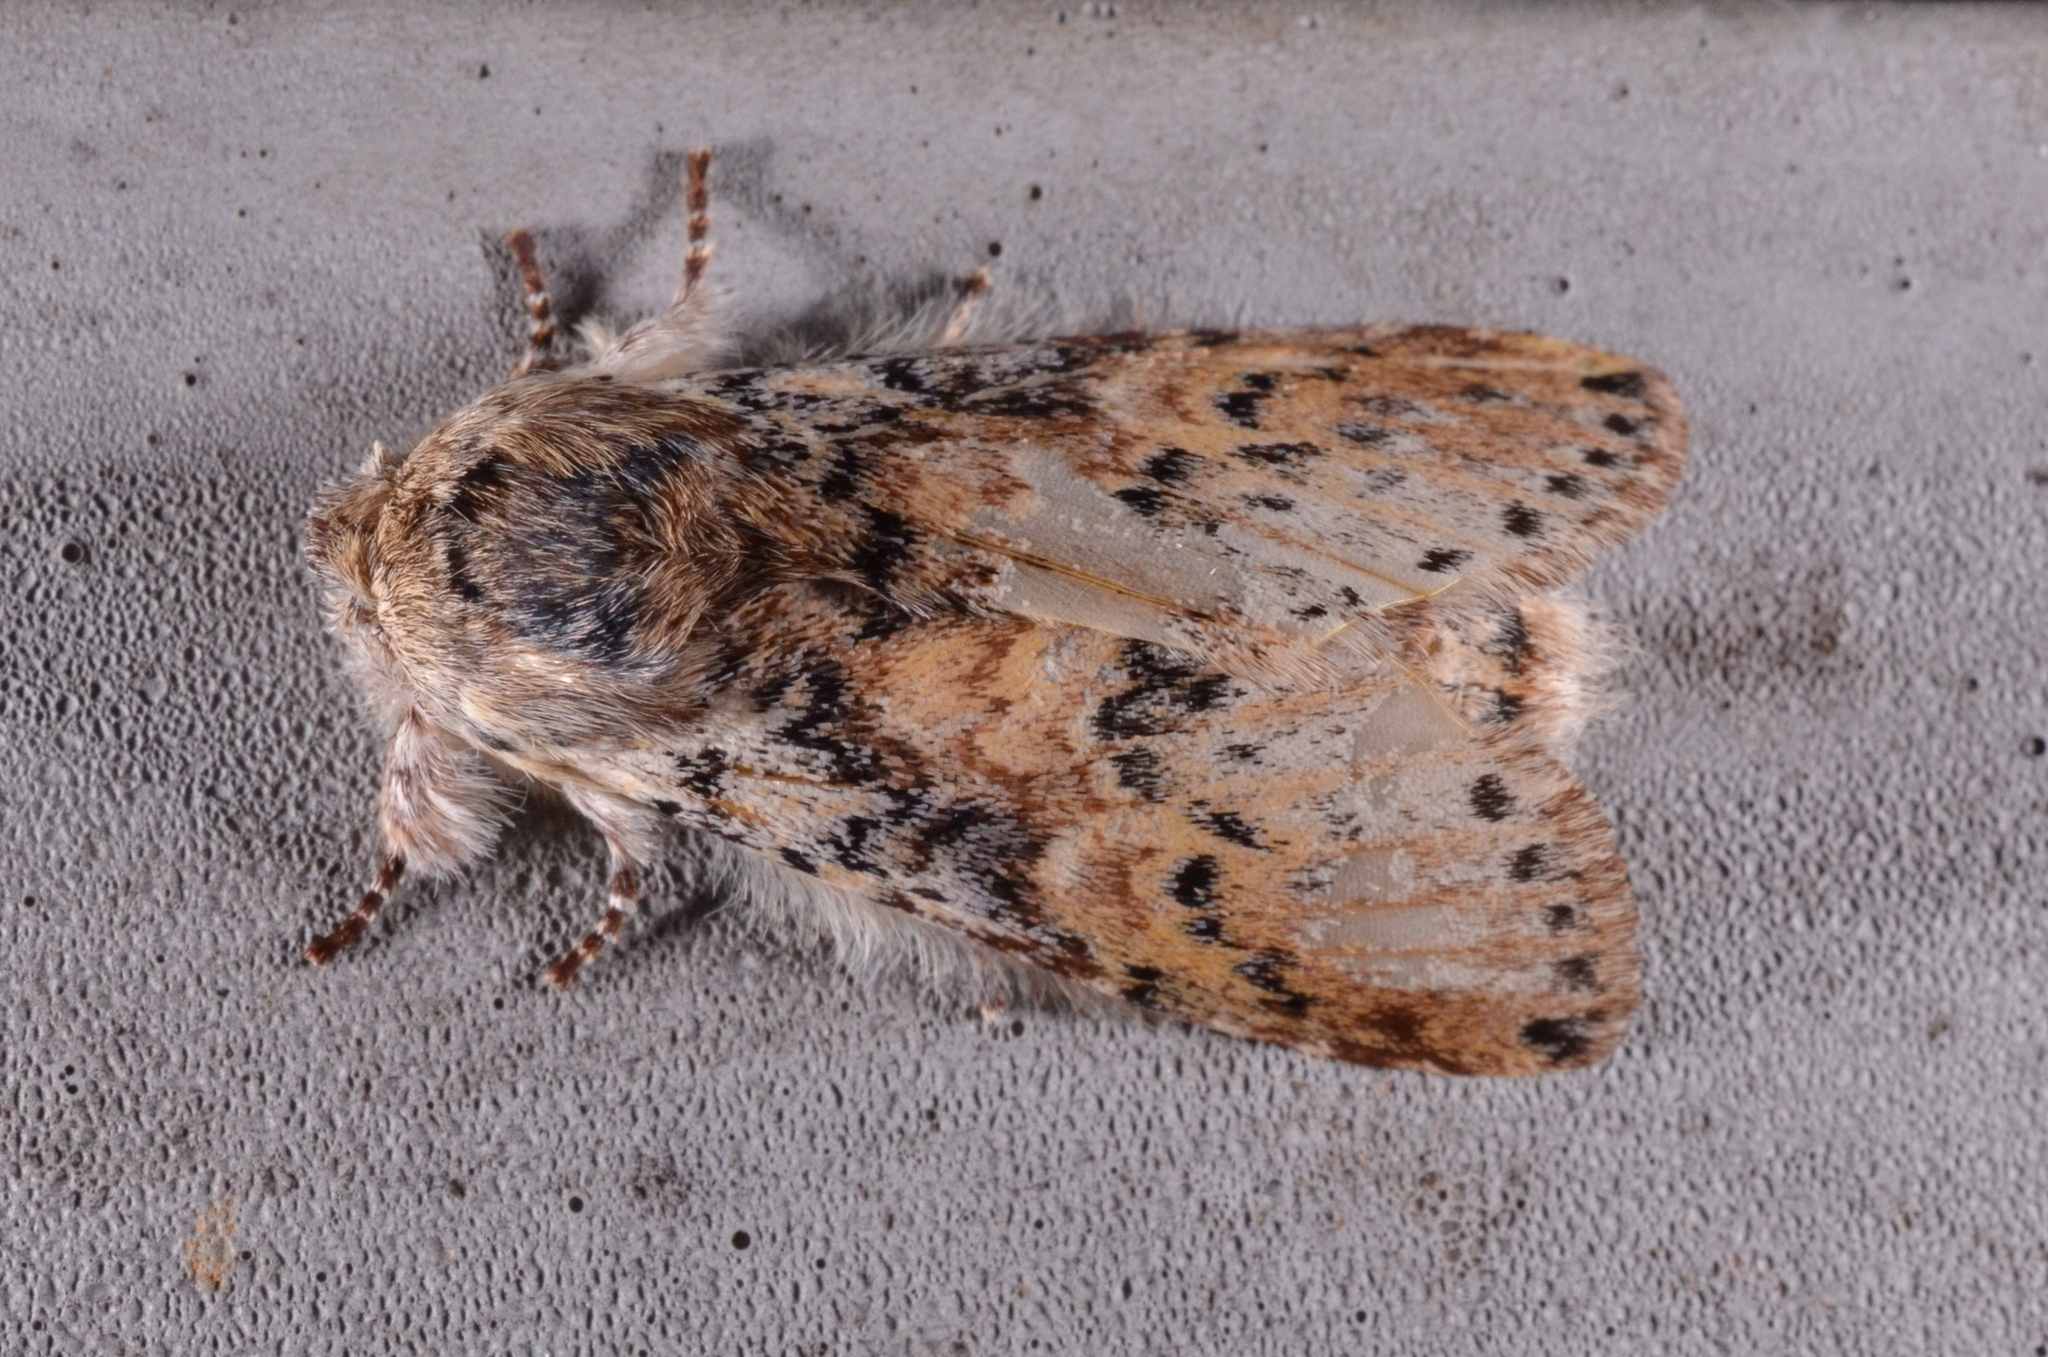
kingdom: Animalia
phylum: Arthropoda
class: Insecta
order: Lepidoptera
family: Notodontidae
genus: Disparia
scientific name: Disparia maculata
